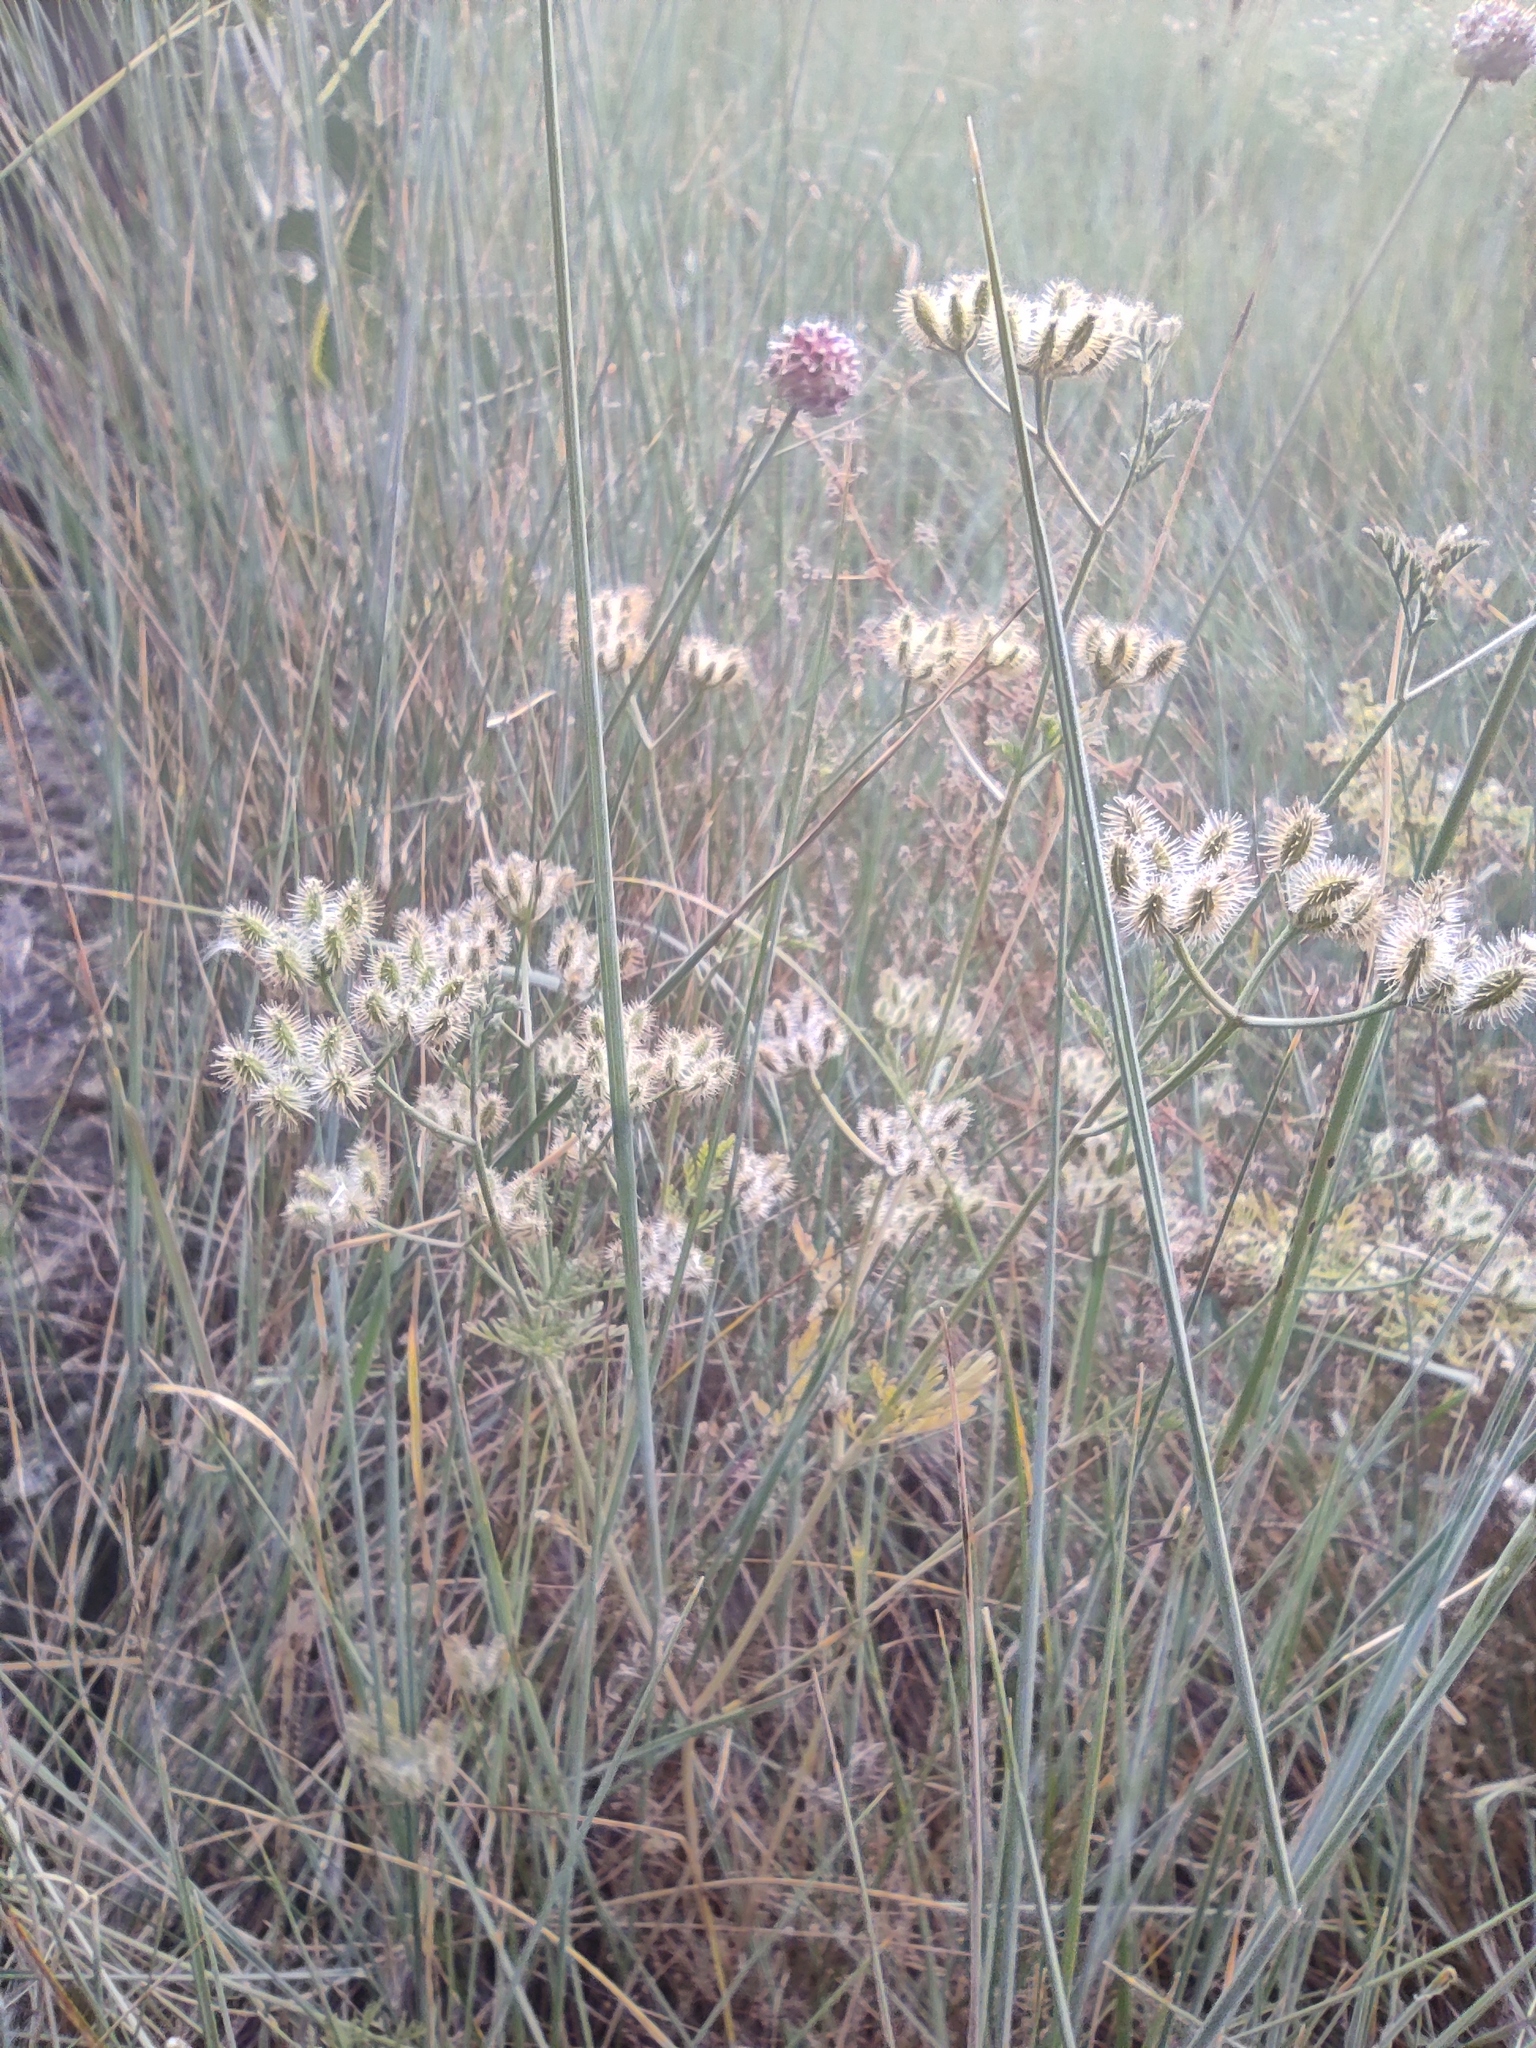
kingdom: Plantae
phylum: Tracheophyta
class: Liliopsida
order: Asparagales
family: Amaryllidaceae
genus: Allium
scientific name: Allium vineale
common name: Crow garlic
